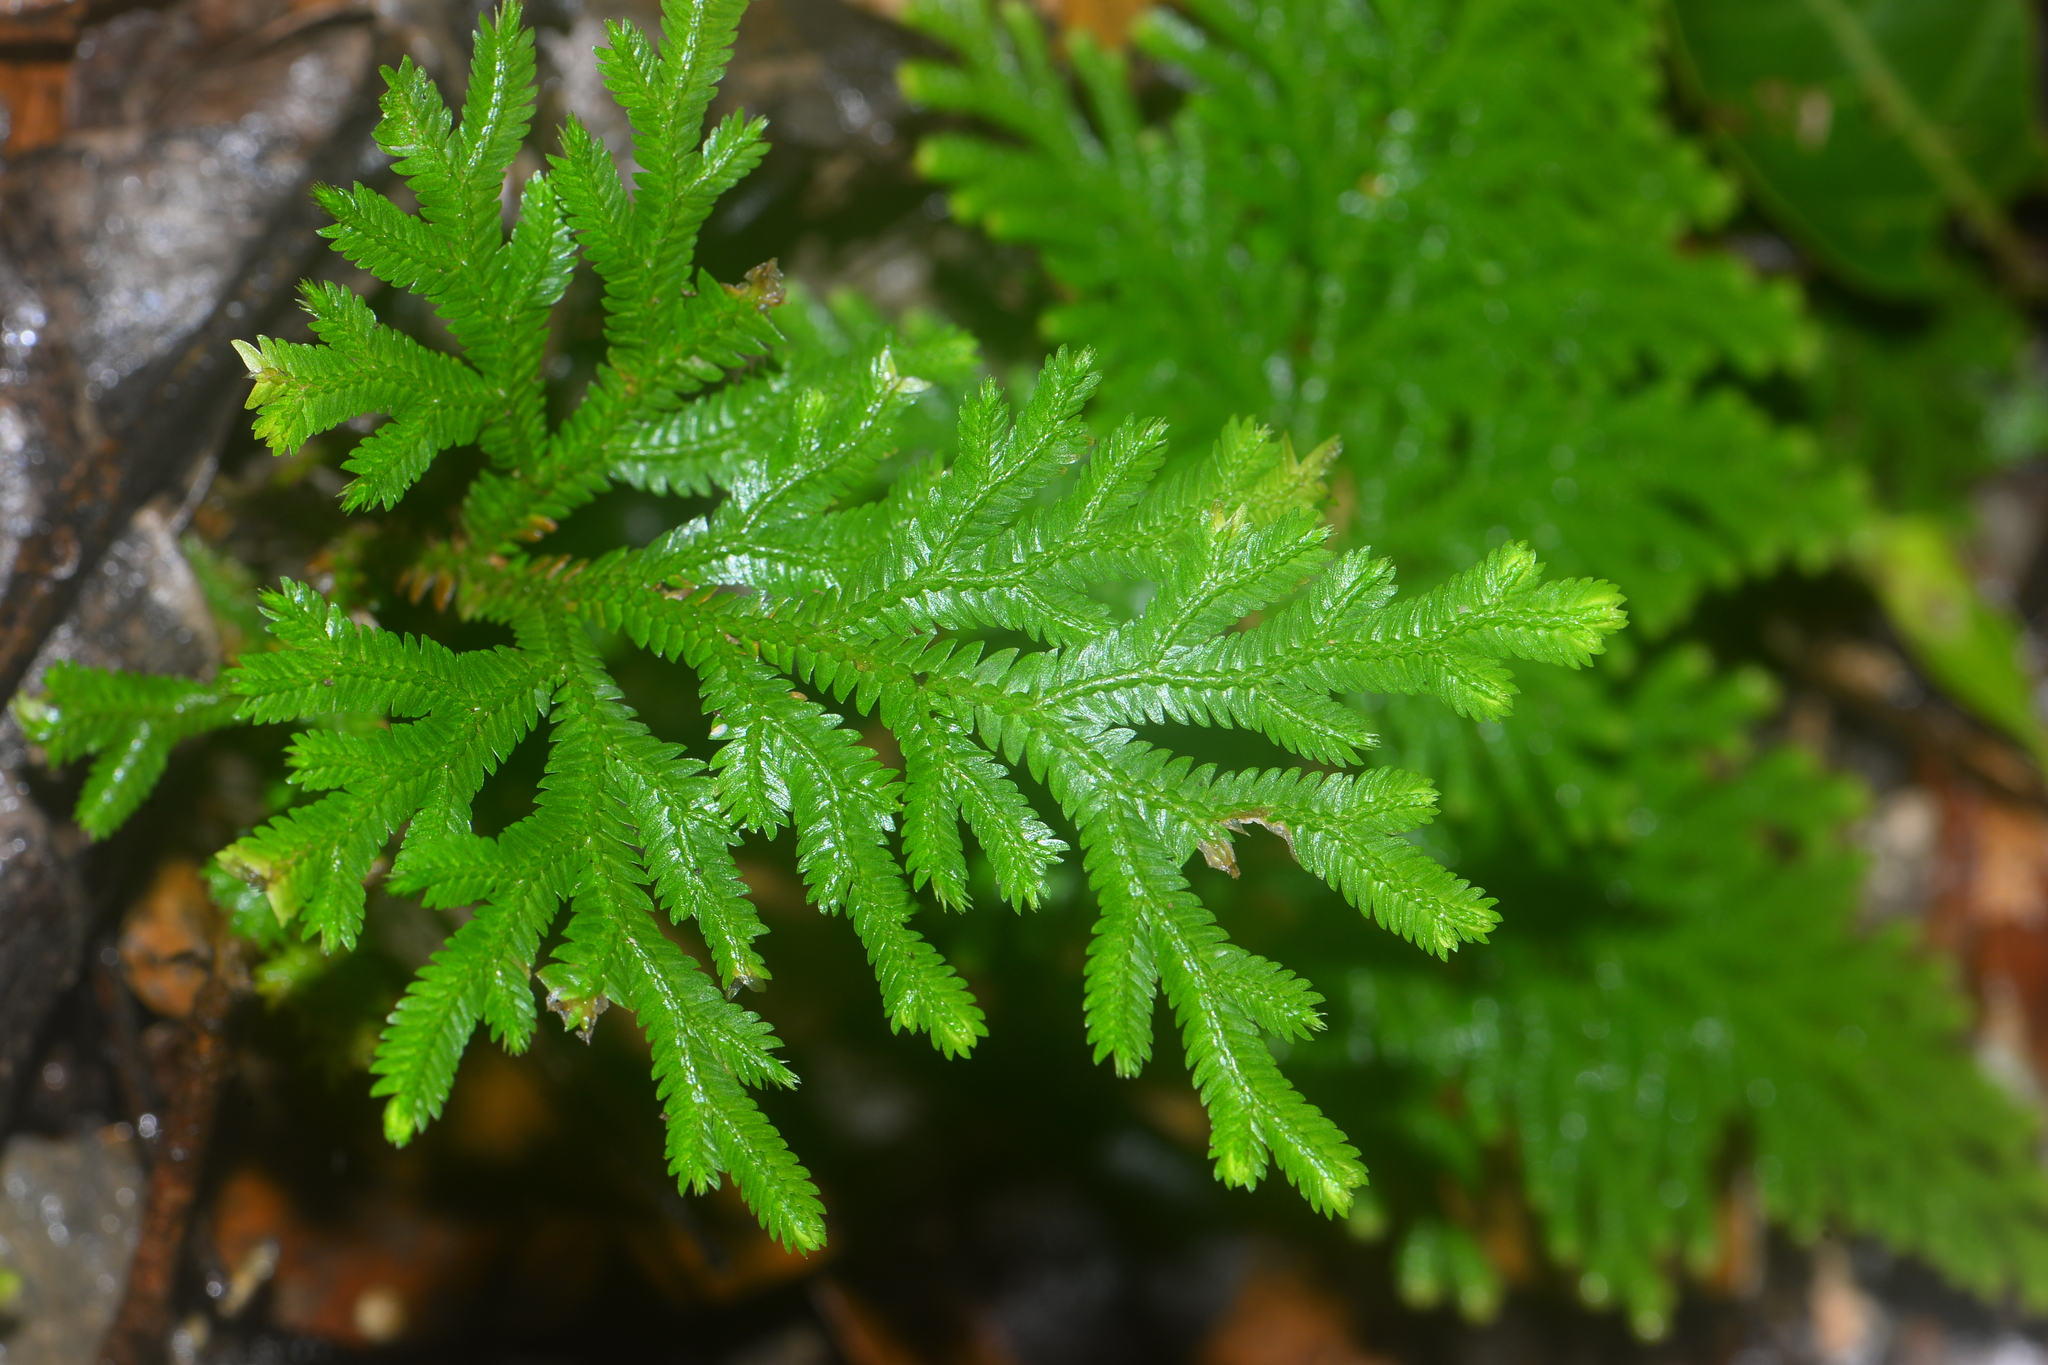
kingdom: Plantae
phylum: Tracheophyta
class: Lycopodiopsida
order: Selaginellales
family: Selaginellaceae
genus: Selaginella
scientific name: Selaginella involvens
